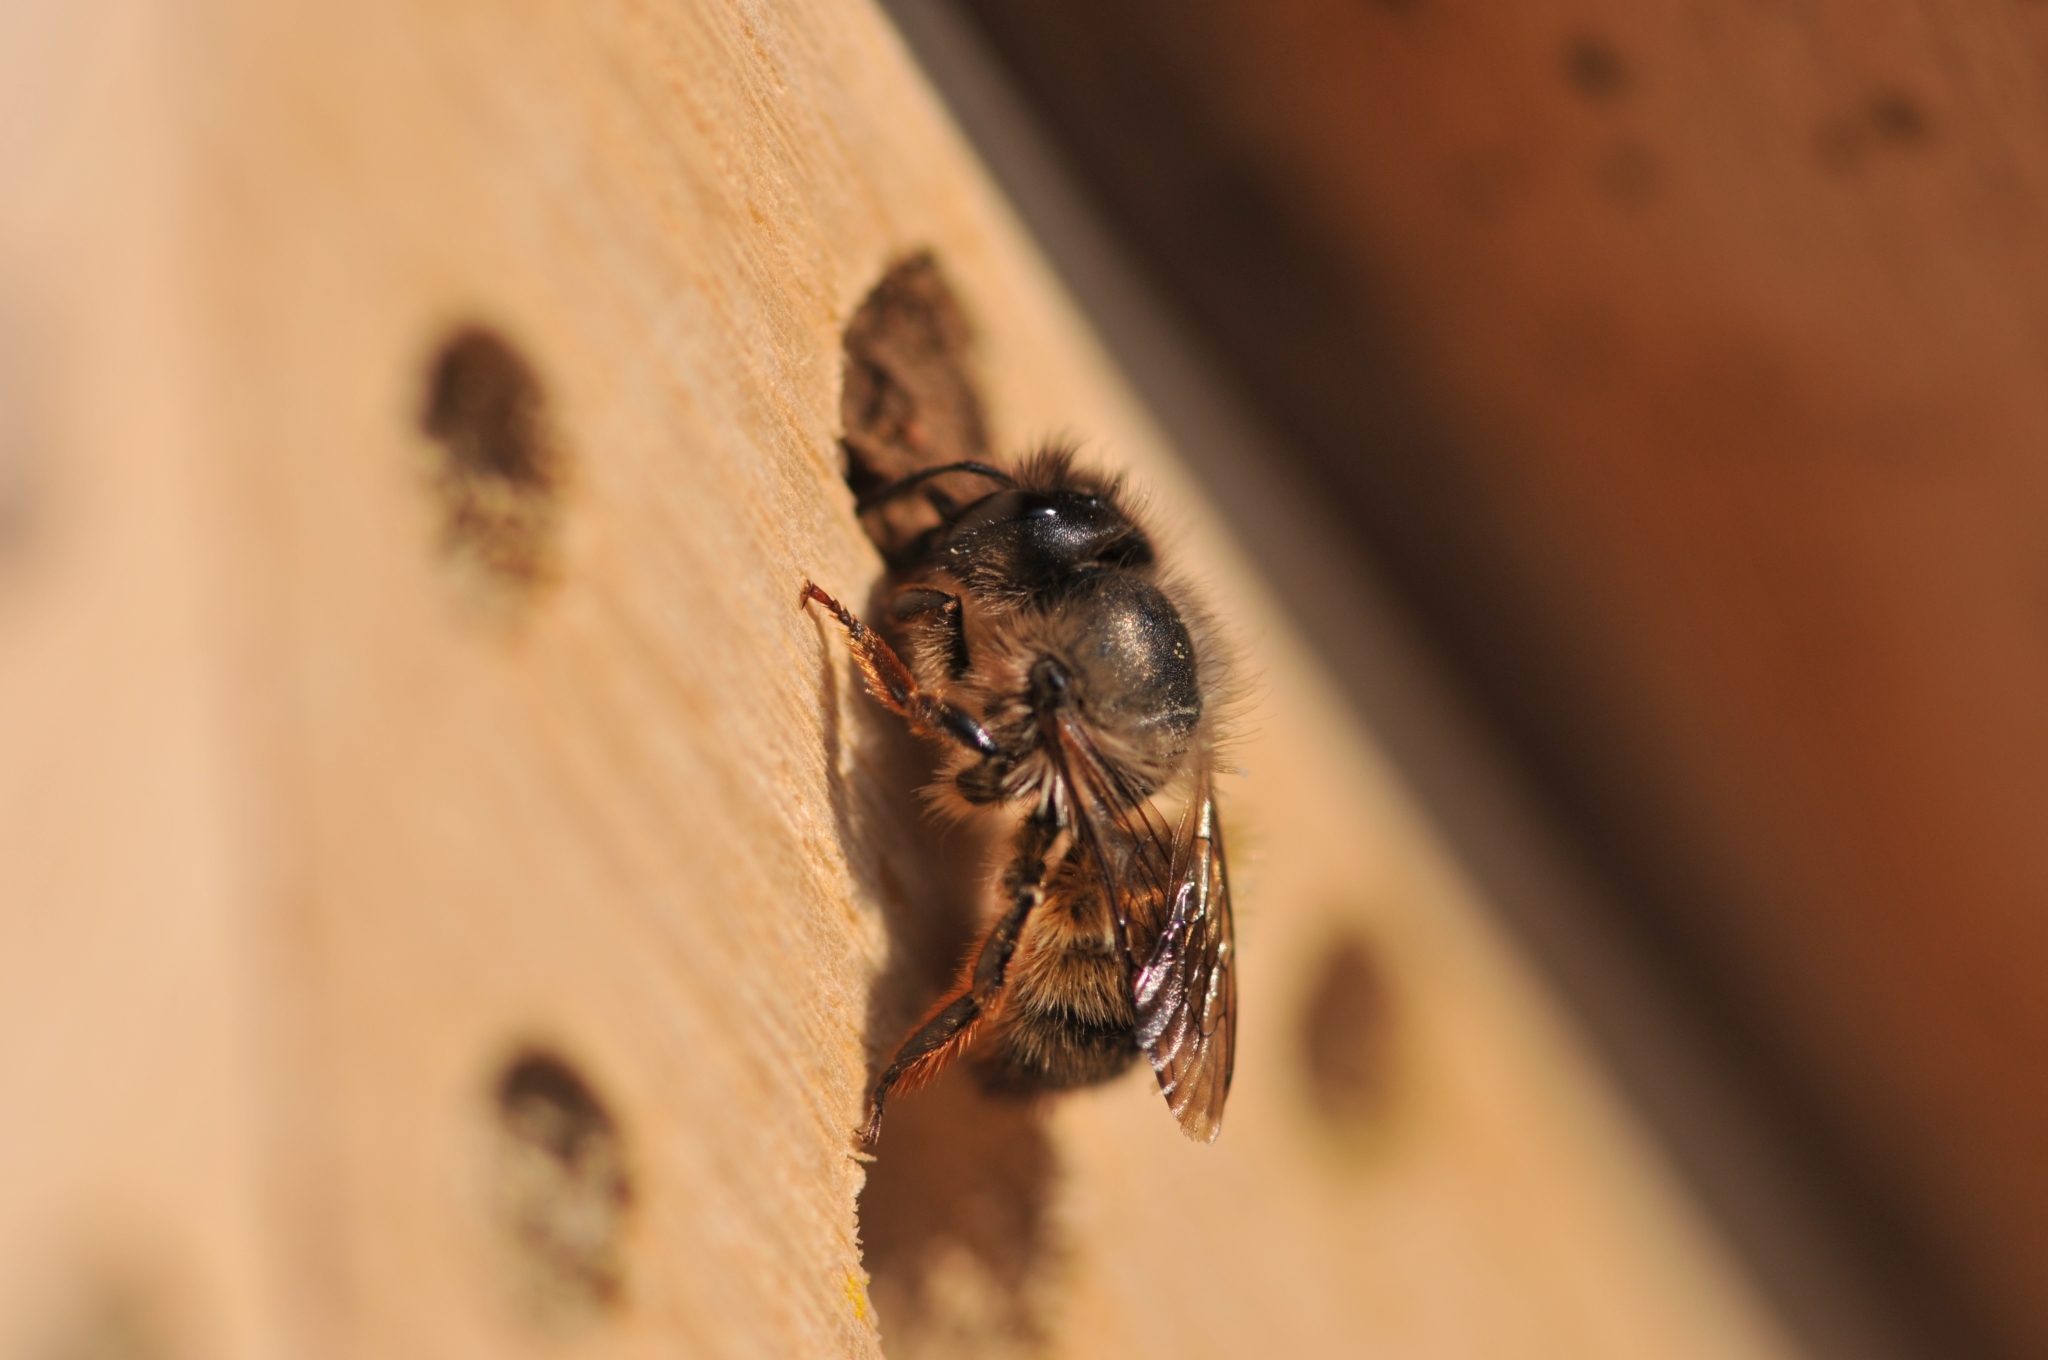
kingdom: Animalia
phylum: Arthropoda
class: Insecta
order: Hymenoptera
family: Megachilidae
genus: Osmia
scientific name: Osmia bicornis
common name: Red mason bee
